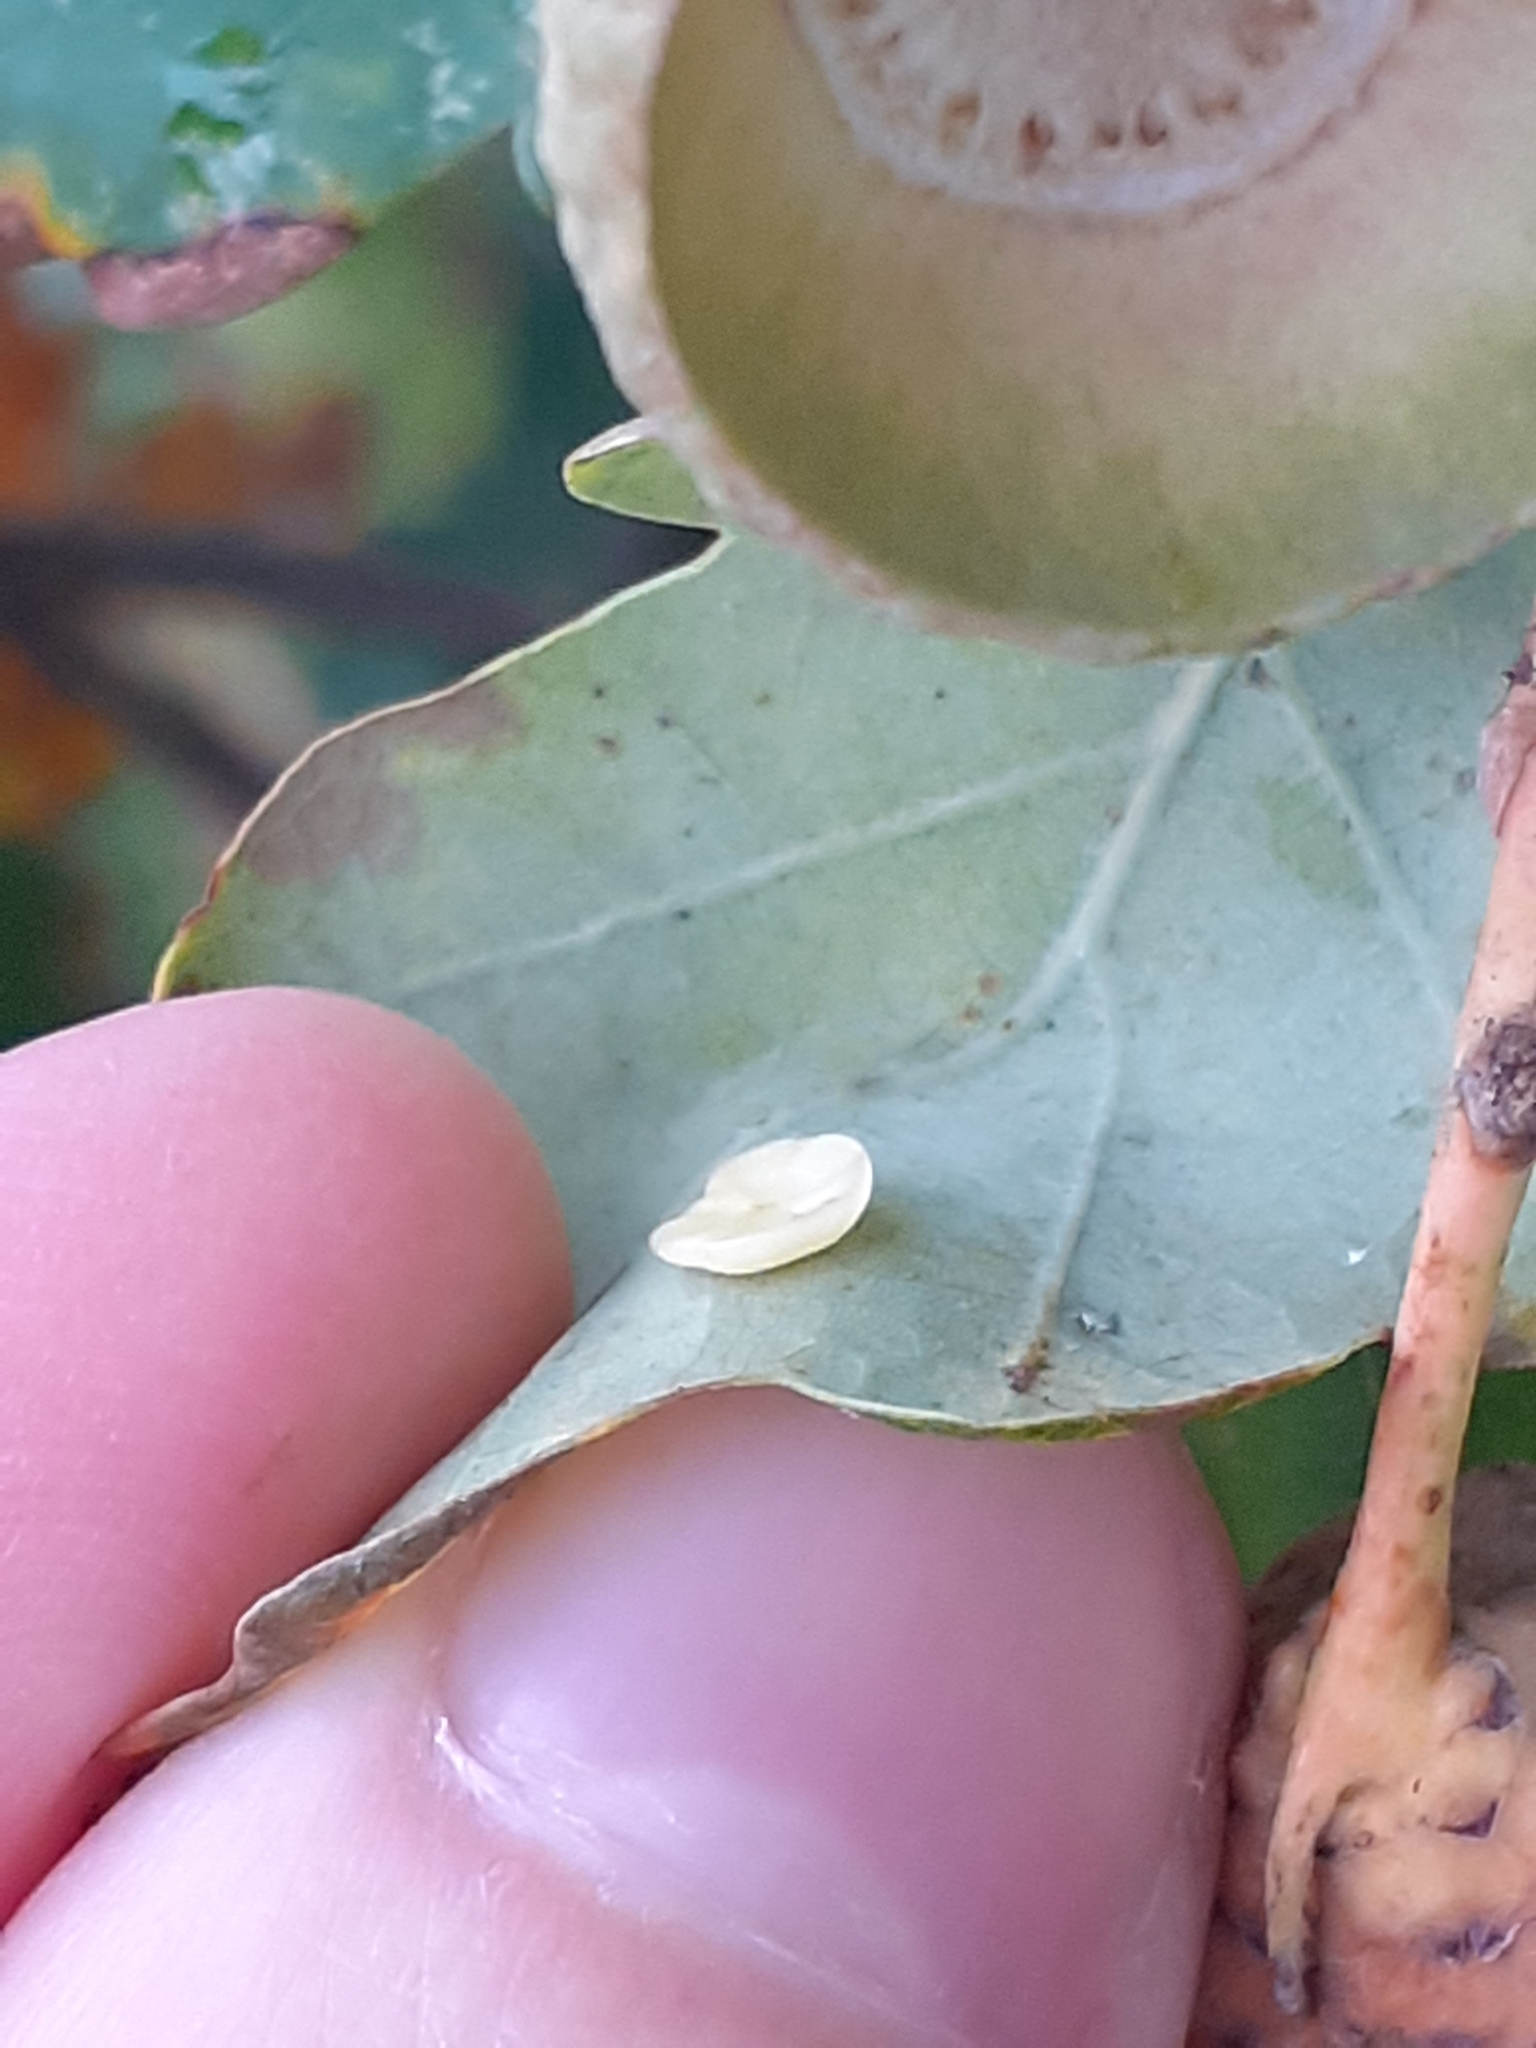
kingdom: Animalia
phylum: Arthropoda
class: Insecta
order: Hymenoptera
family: Cynipidae
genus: Neuroterus
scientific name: Neuroterus albipes
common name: Smooth spangle gall
